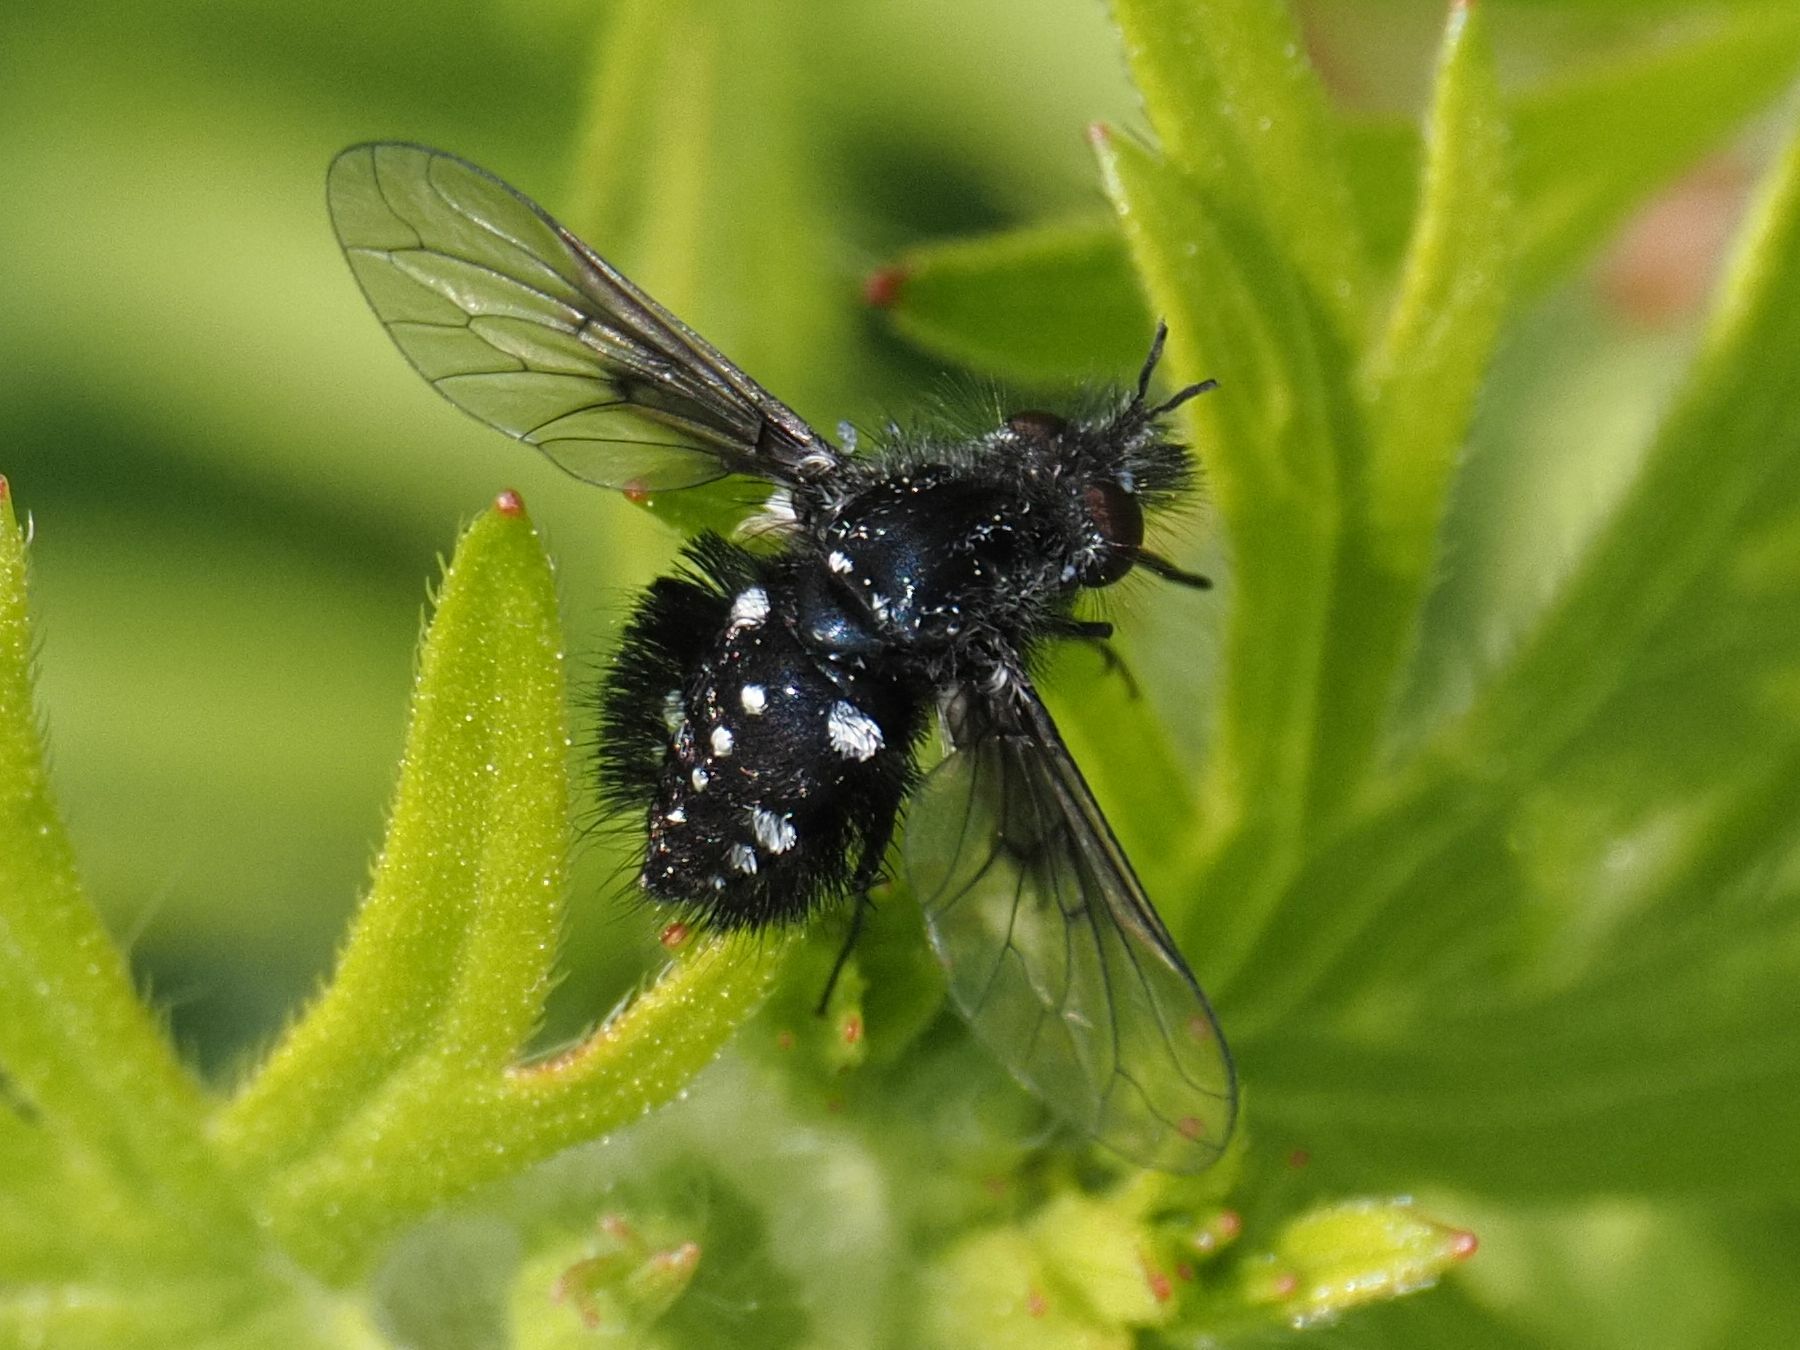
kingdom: Animalia
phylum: Arthropoda
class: Insecta
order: Diptera
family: Bombyliidae
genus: Bombylella
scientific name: Bombylella atra
